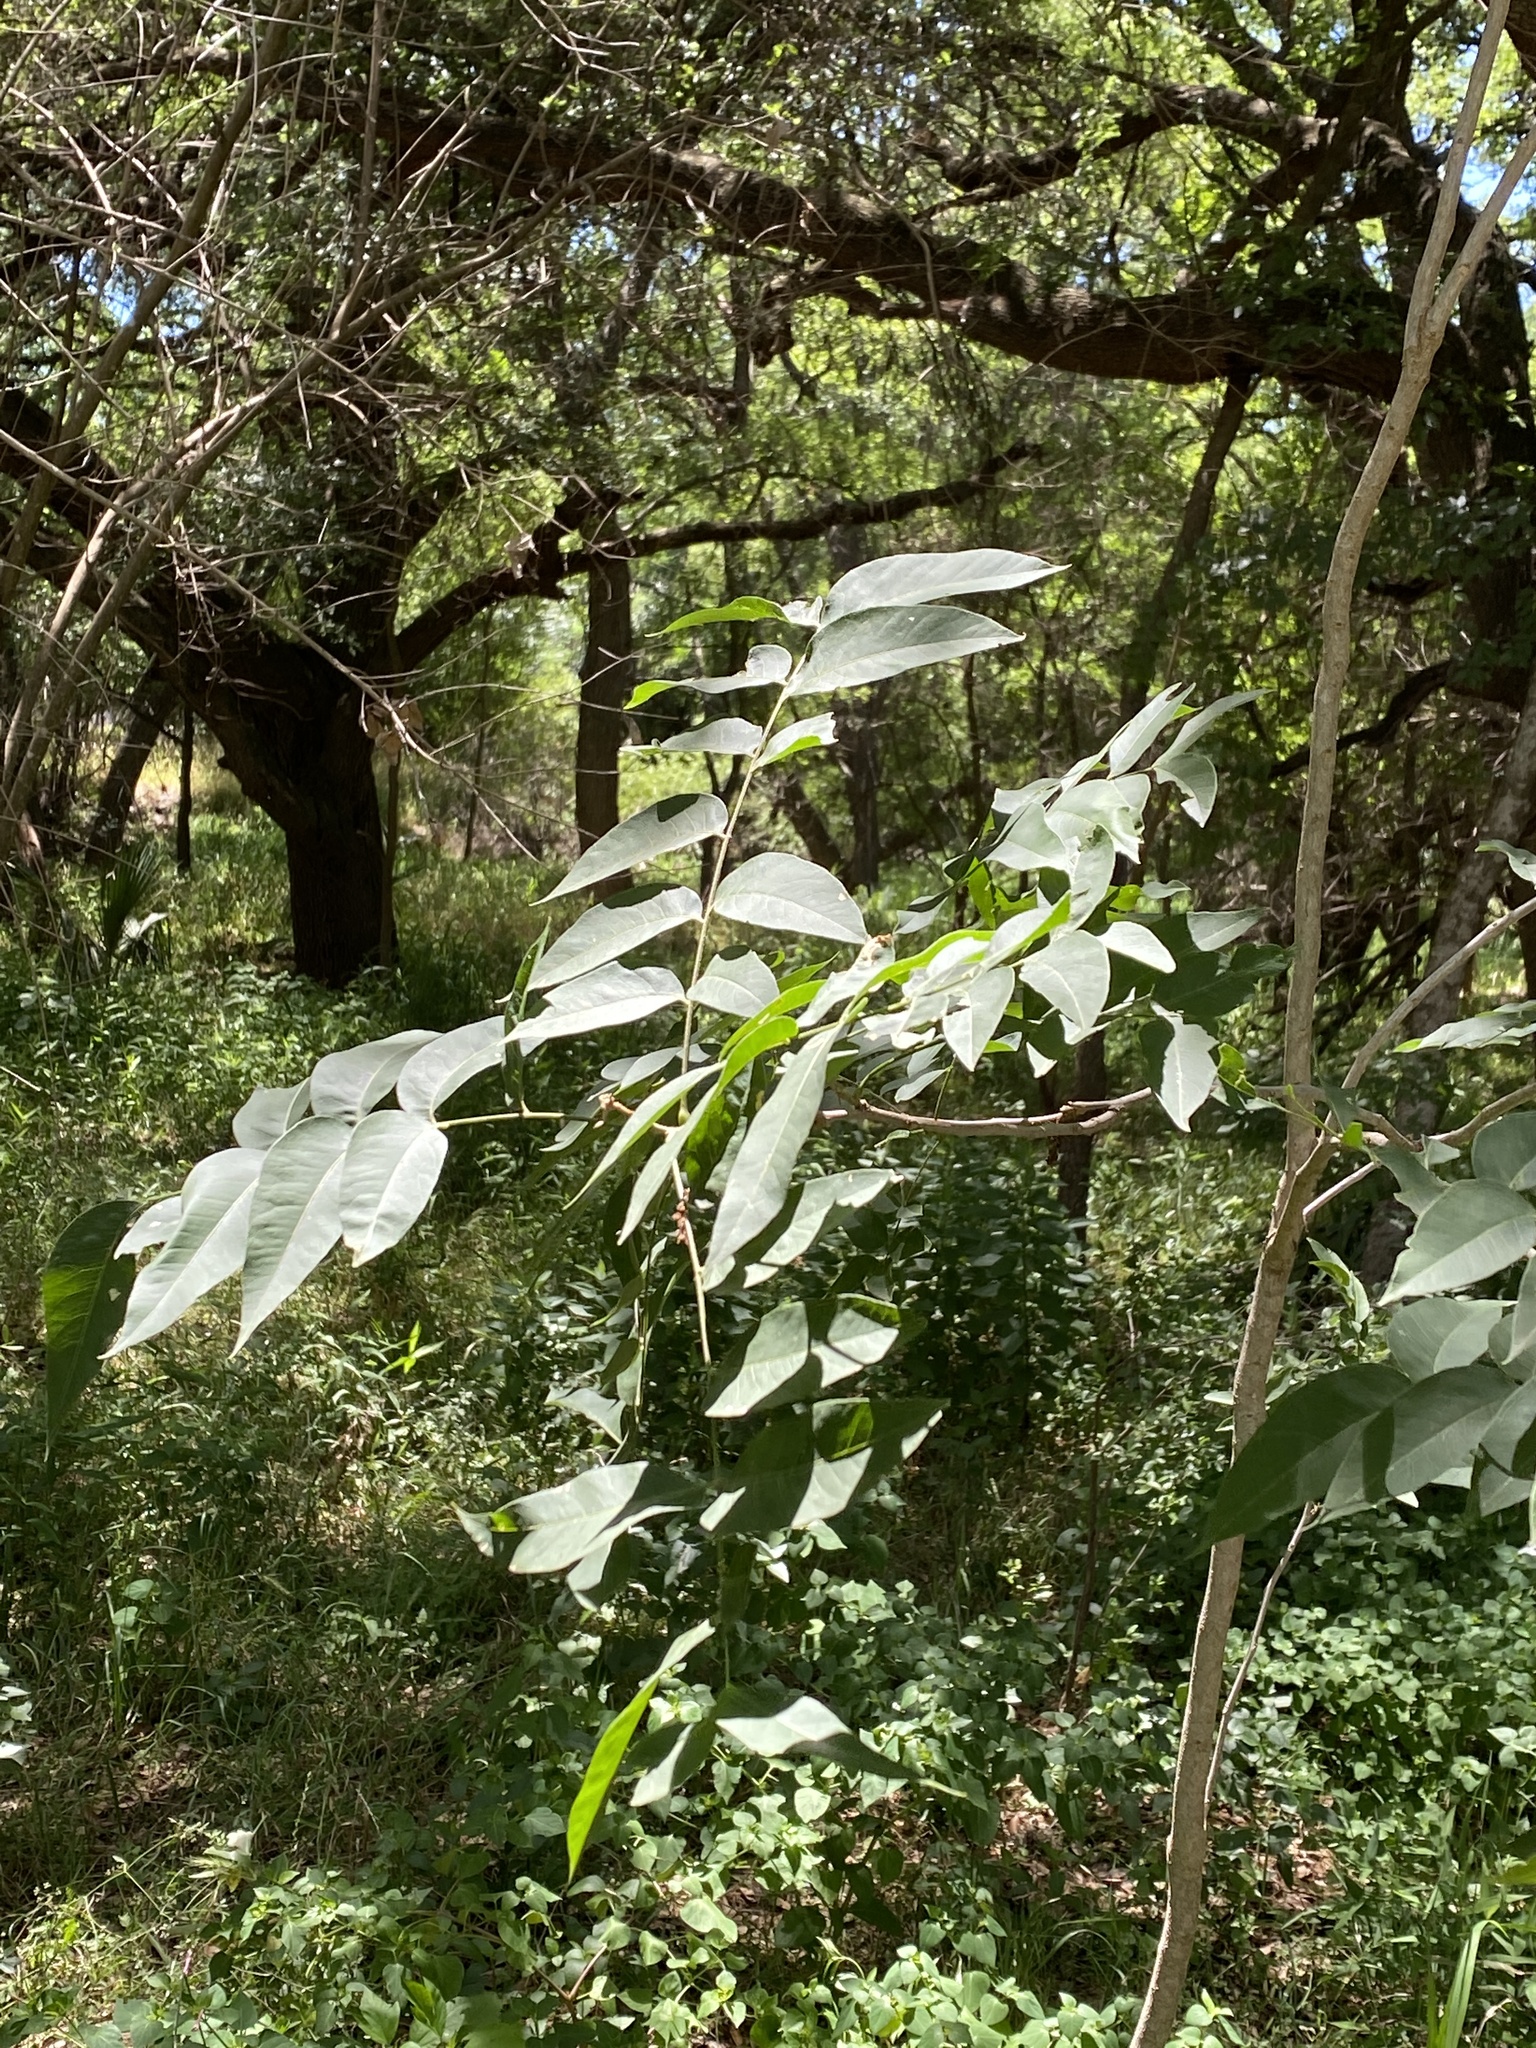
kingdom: Plantae
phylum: Tracheophyta
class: Magnoliopsida
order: Sapindales
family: Sapindaceae
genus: Sapindus
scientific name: Sapindus drummondii
